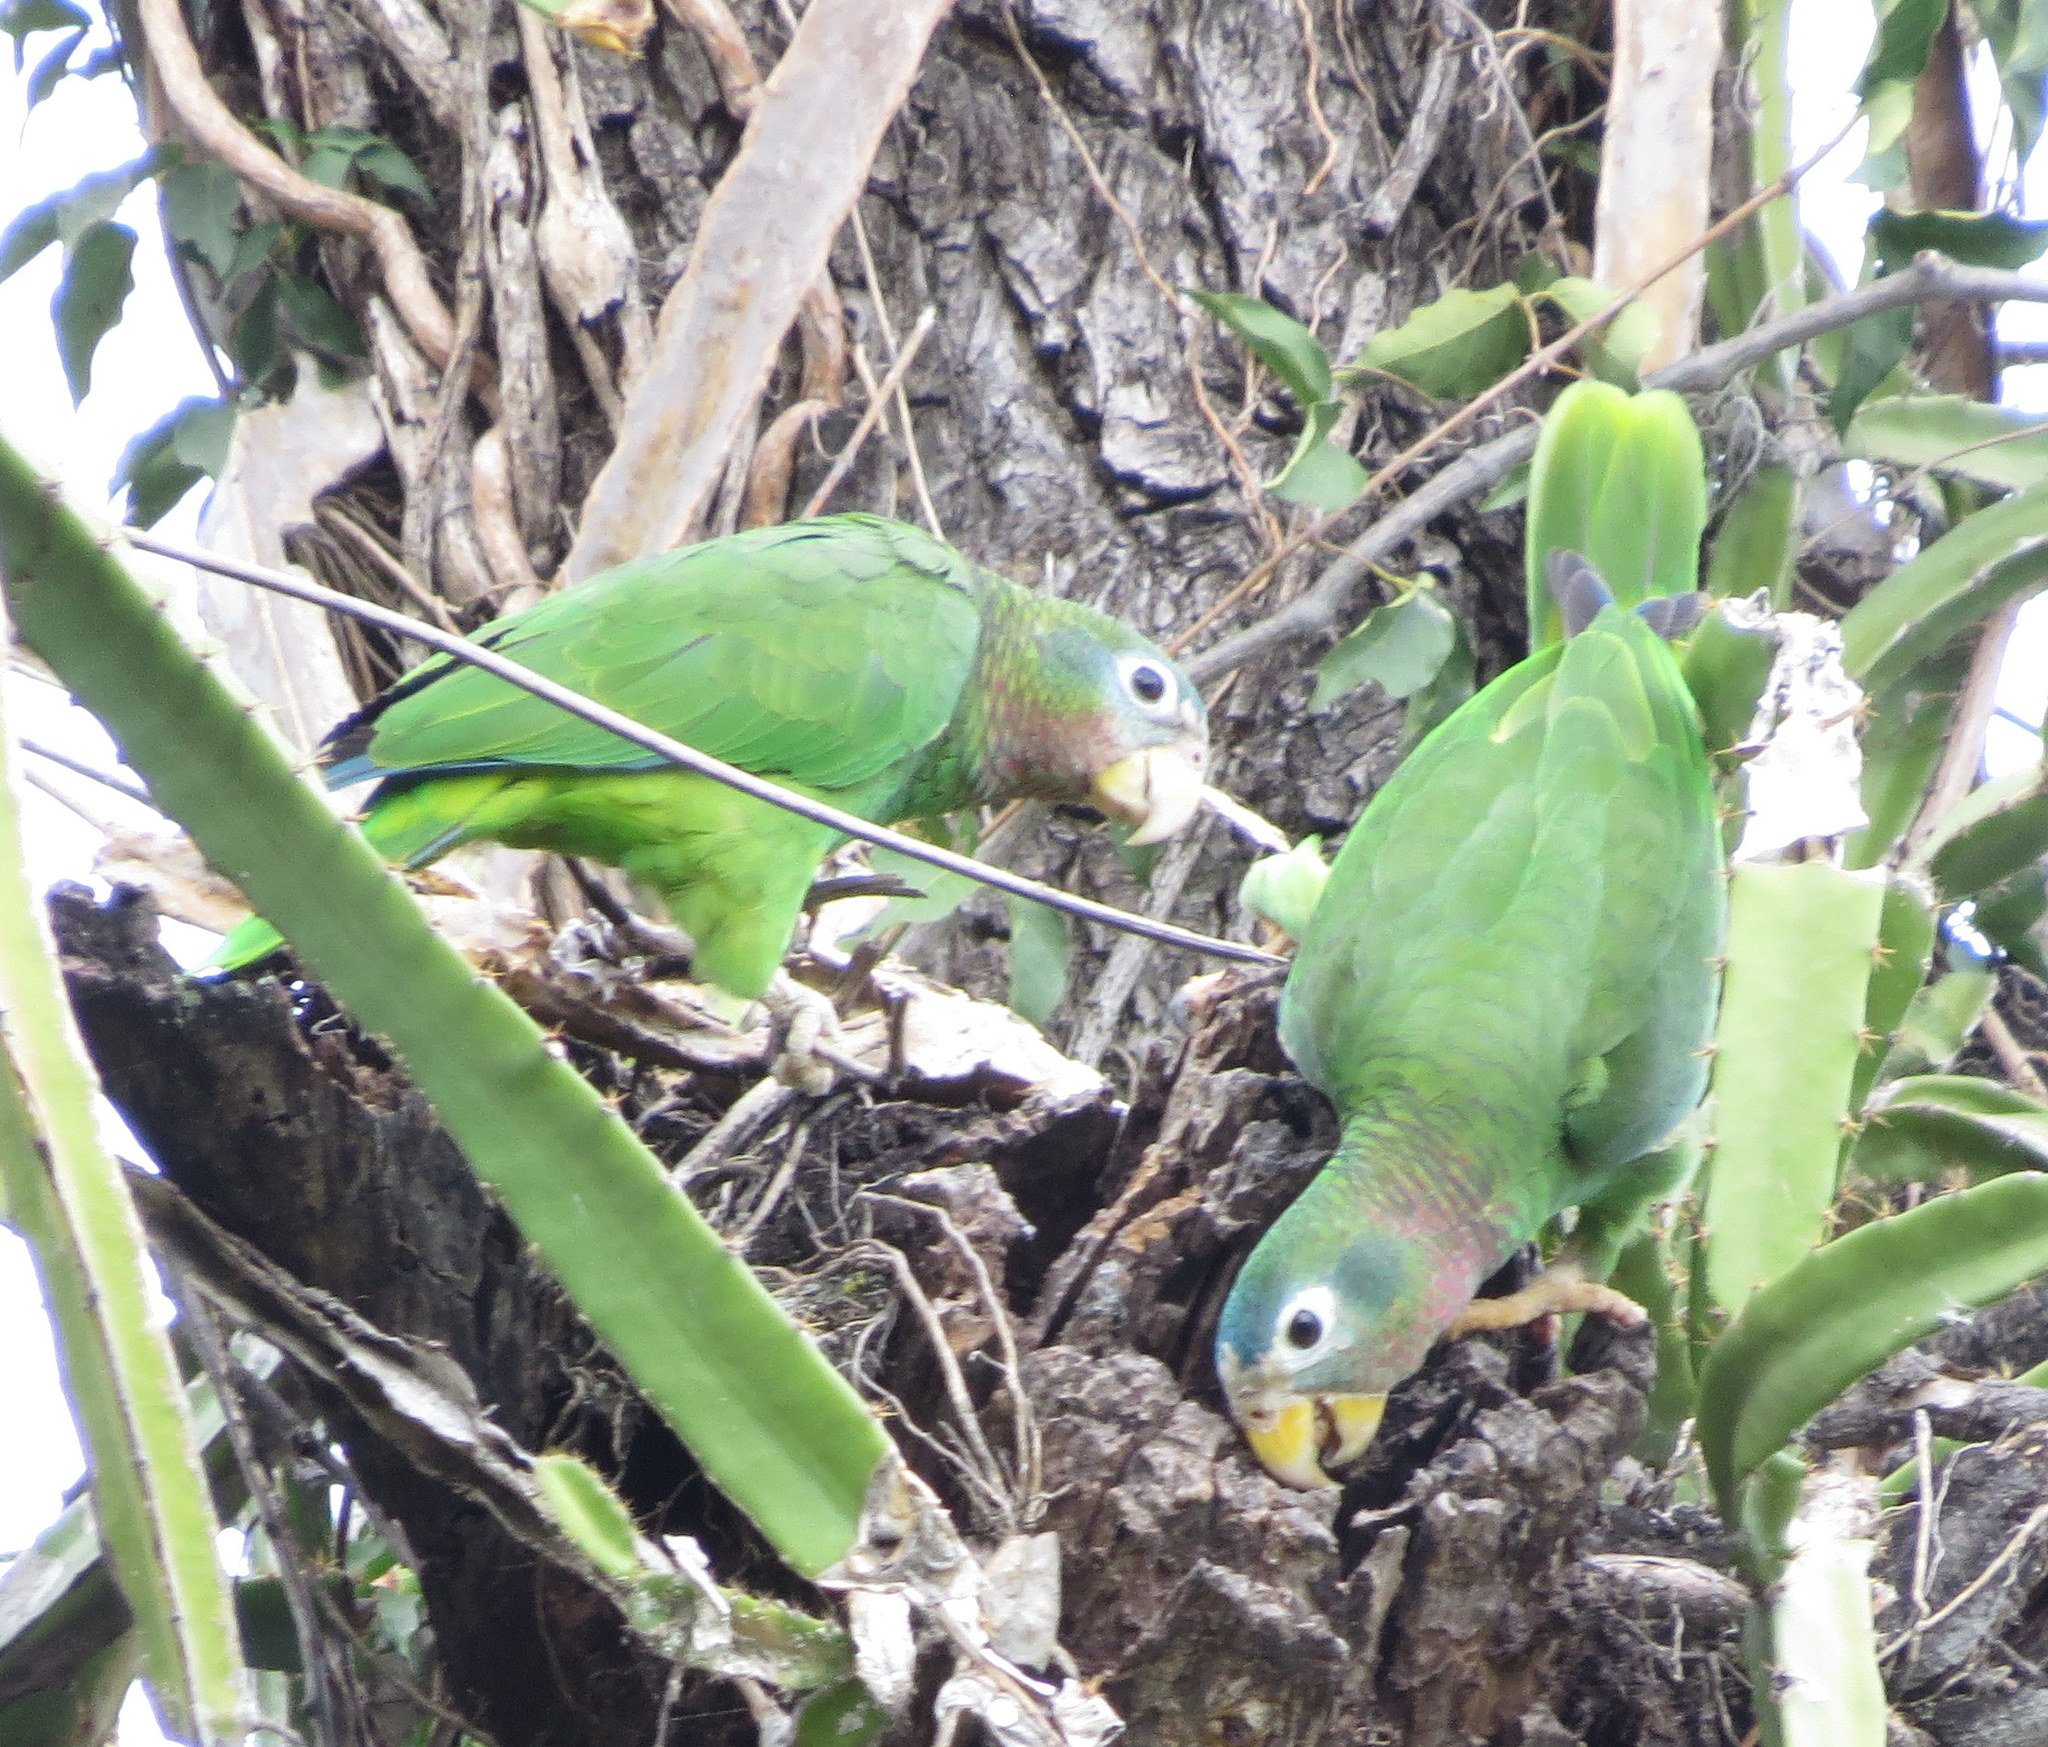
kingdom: Animalia
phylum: Chordata
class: Aves
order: Psittaciformes
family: Psittacidae
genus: Amazona
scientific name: Amazona collaria
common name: Yellow-billed amazon
